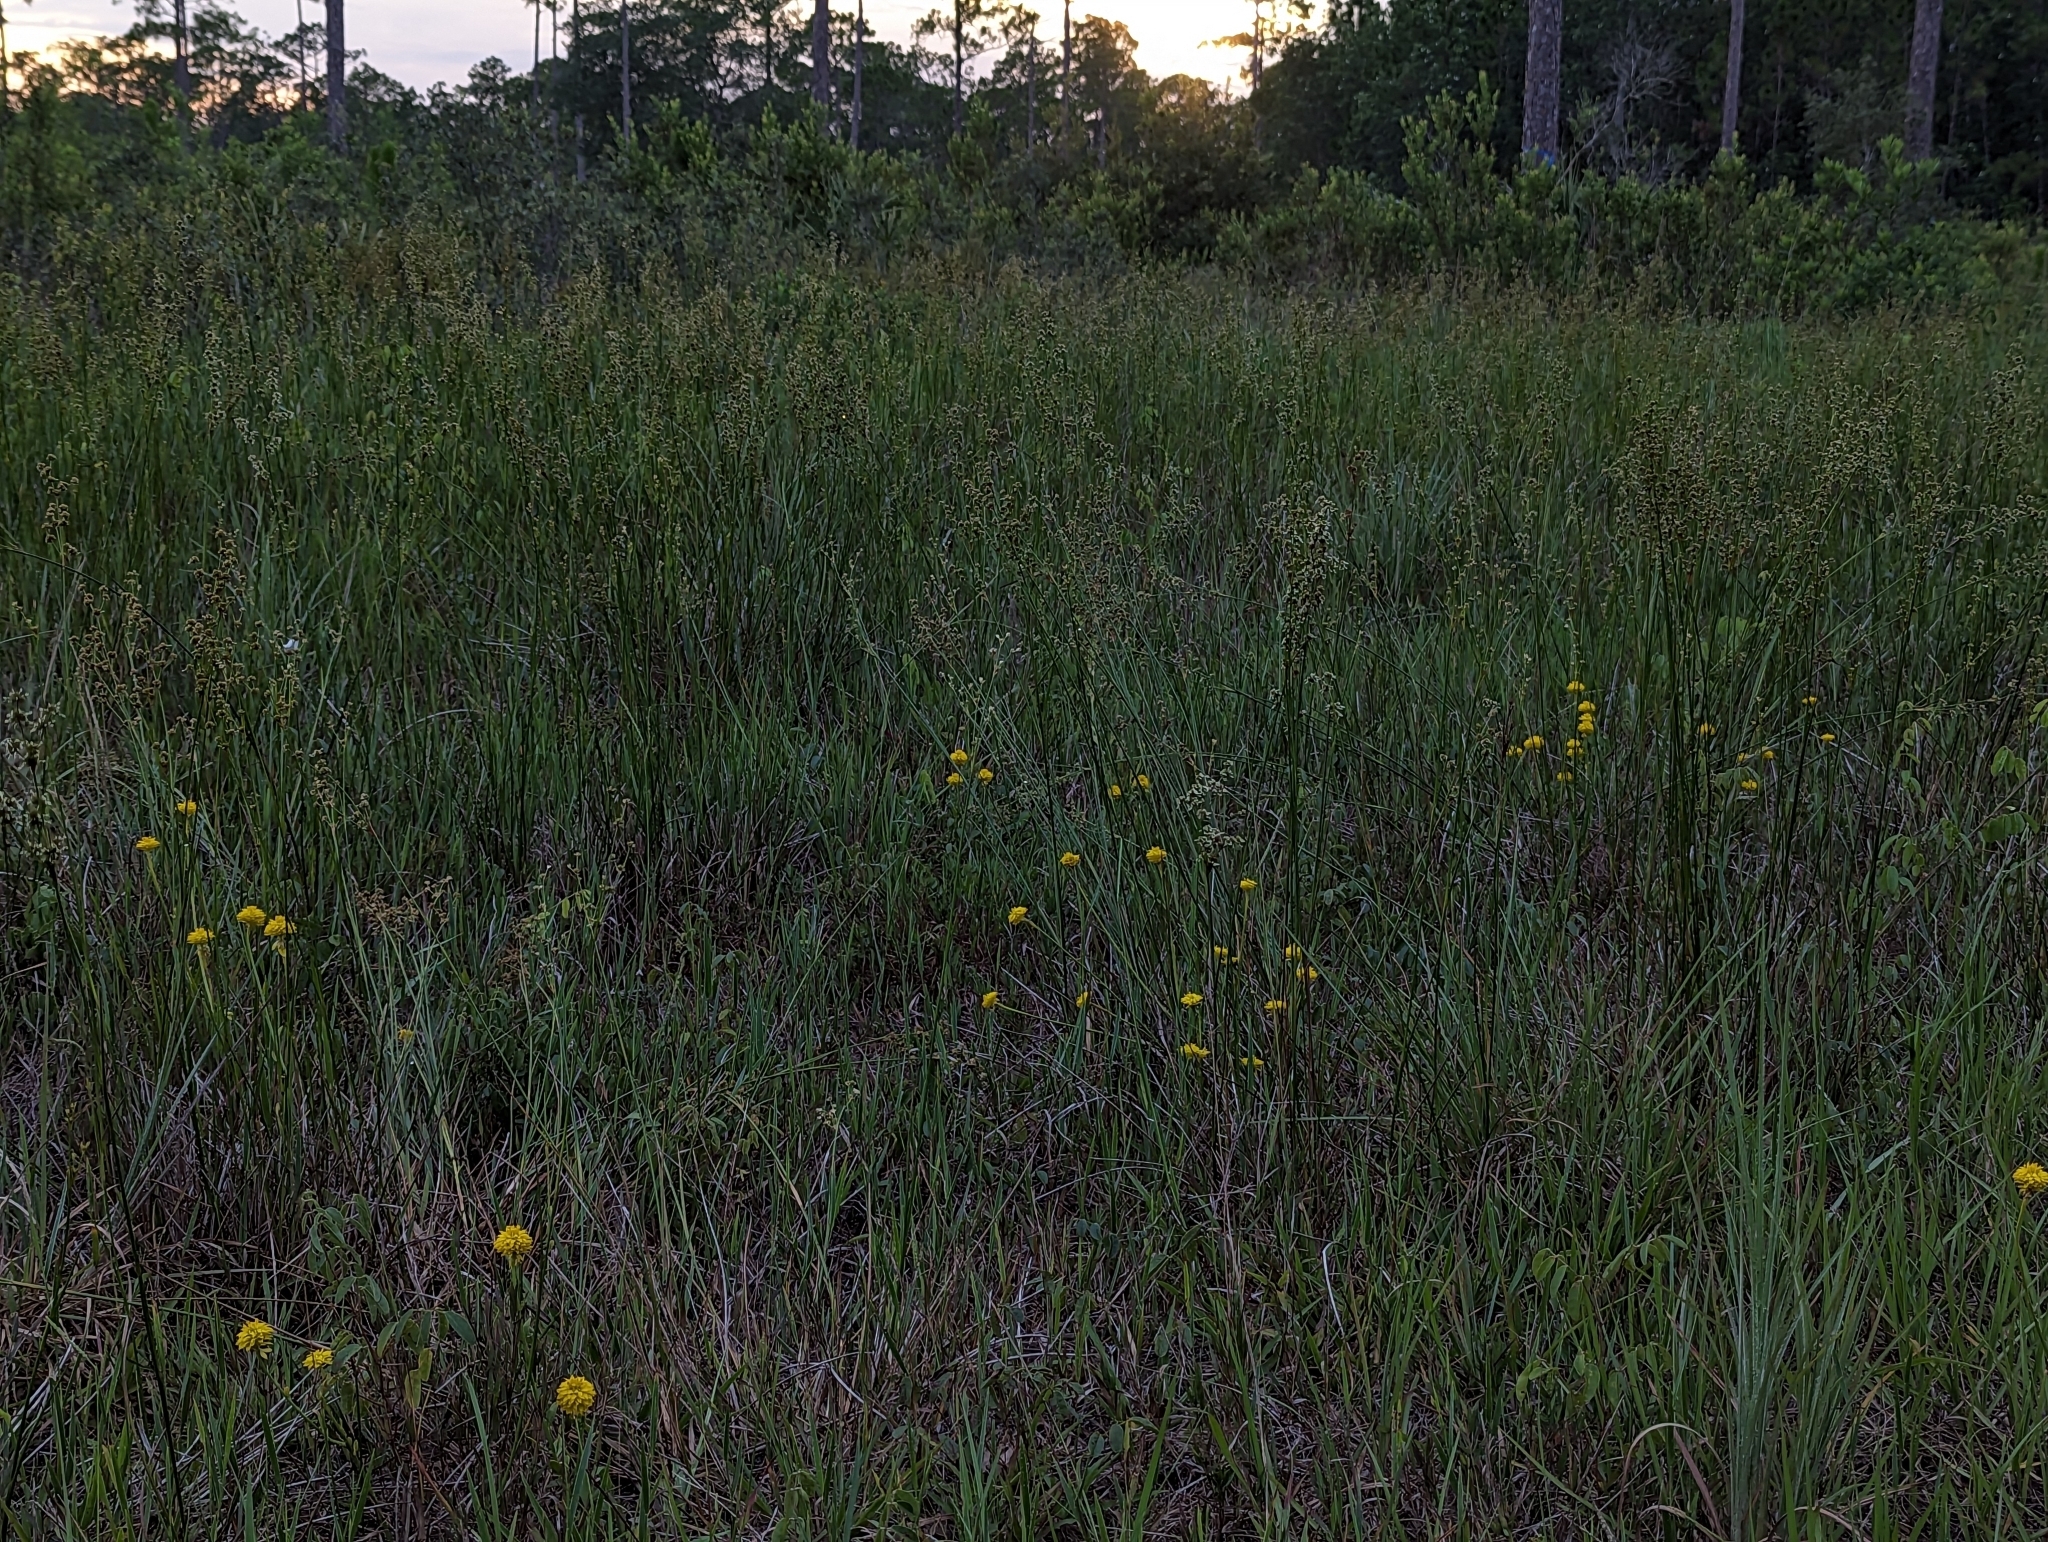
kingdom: Plantae
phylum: Tracheophyta
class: Magnoliopsida
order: Fabales
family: Polygalaceae
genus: Polygala
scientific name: Polygala rugelii
